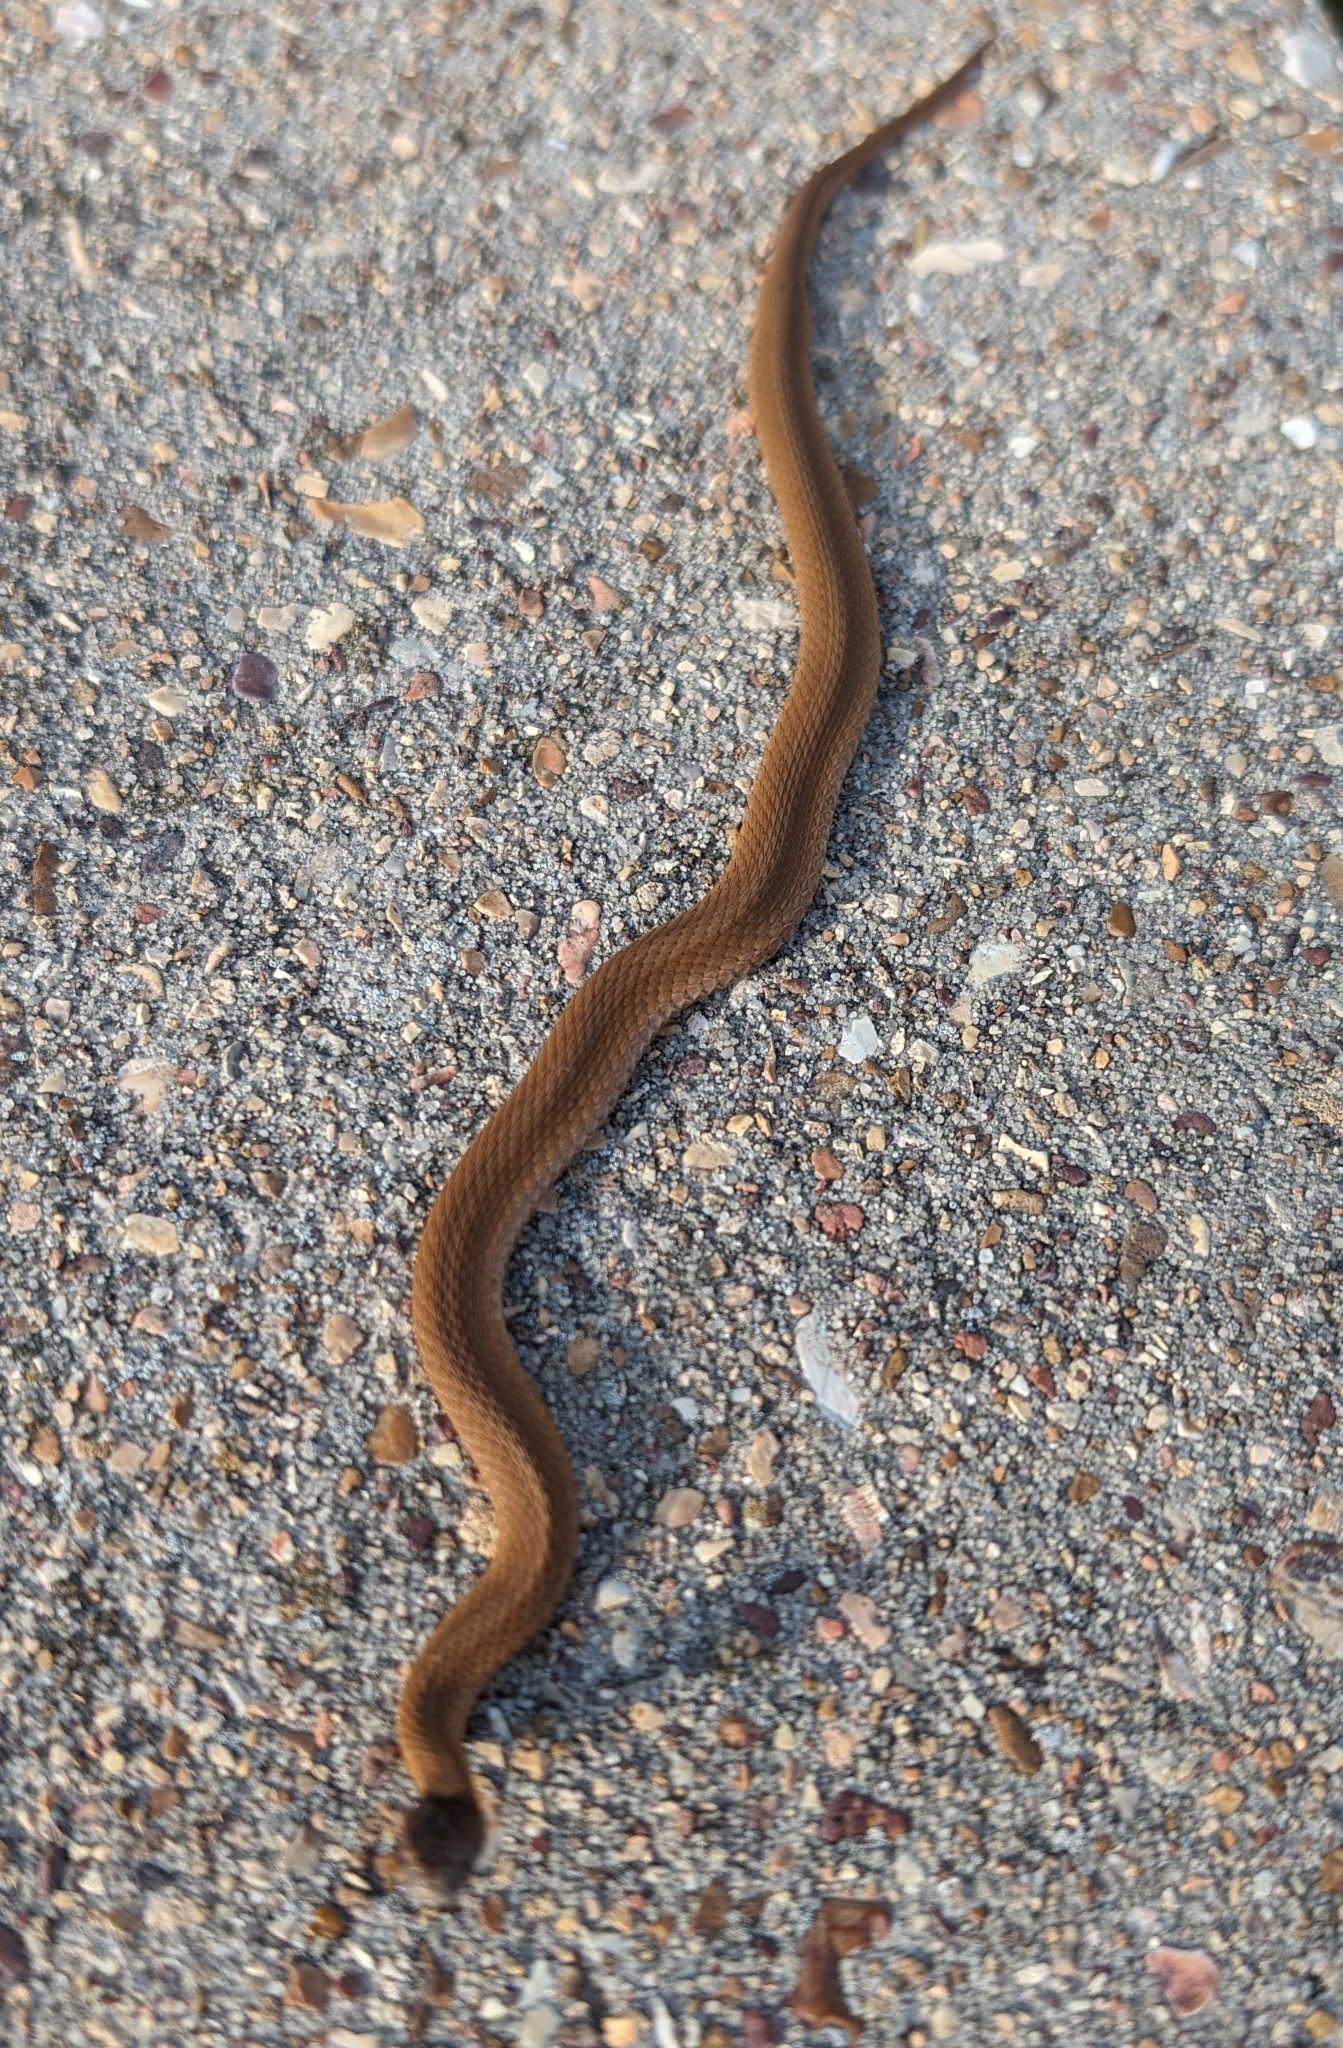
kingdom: Animalia
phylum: Chordata
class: Squamata
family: Colubridae
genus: Storeria
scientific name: Storeria occipitomaculata
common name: Redbelly snake
